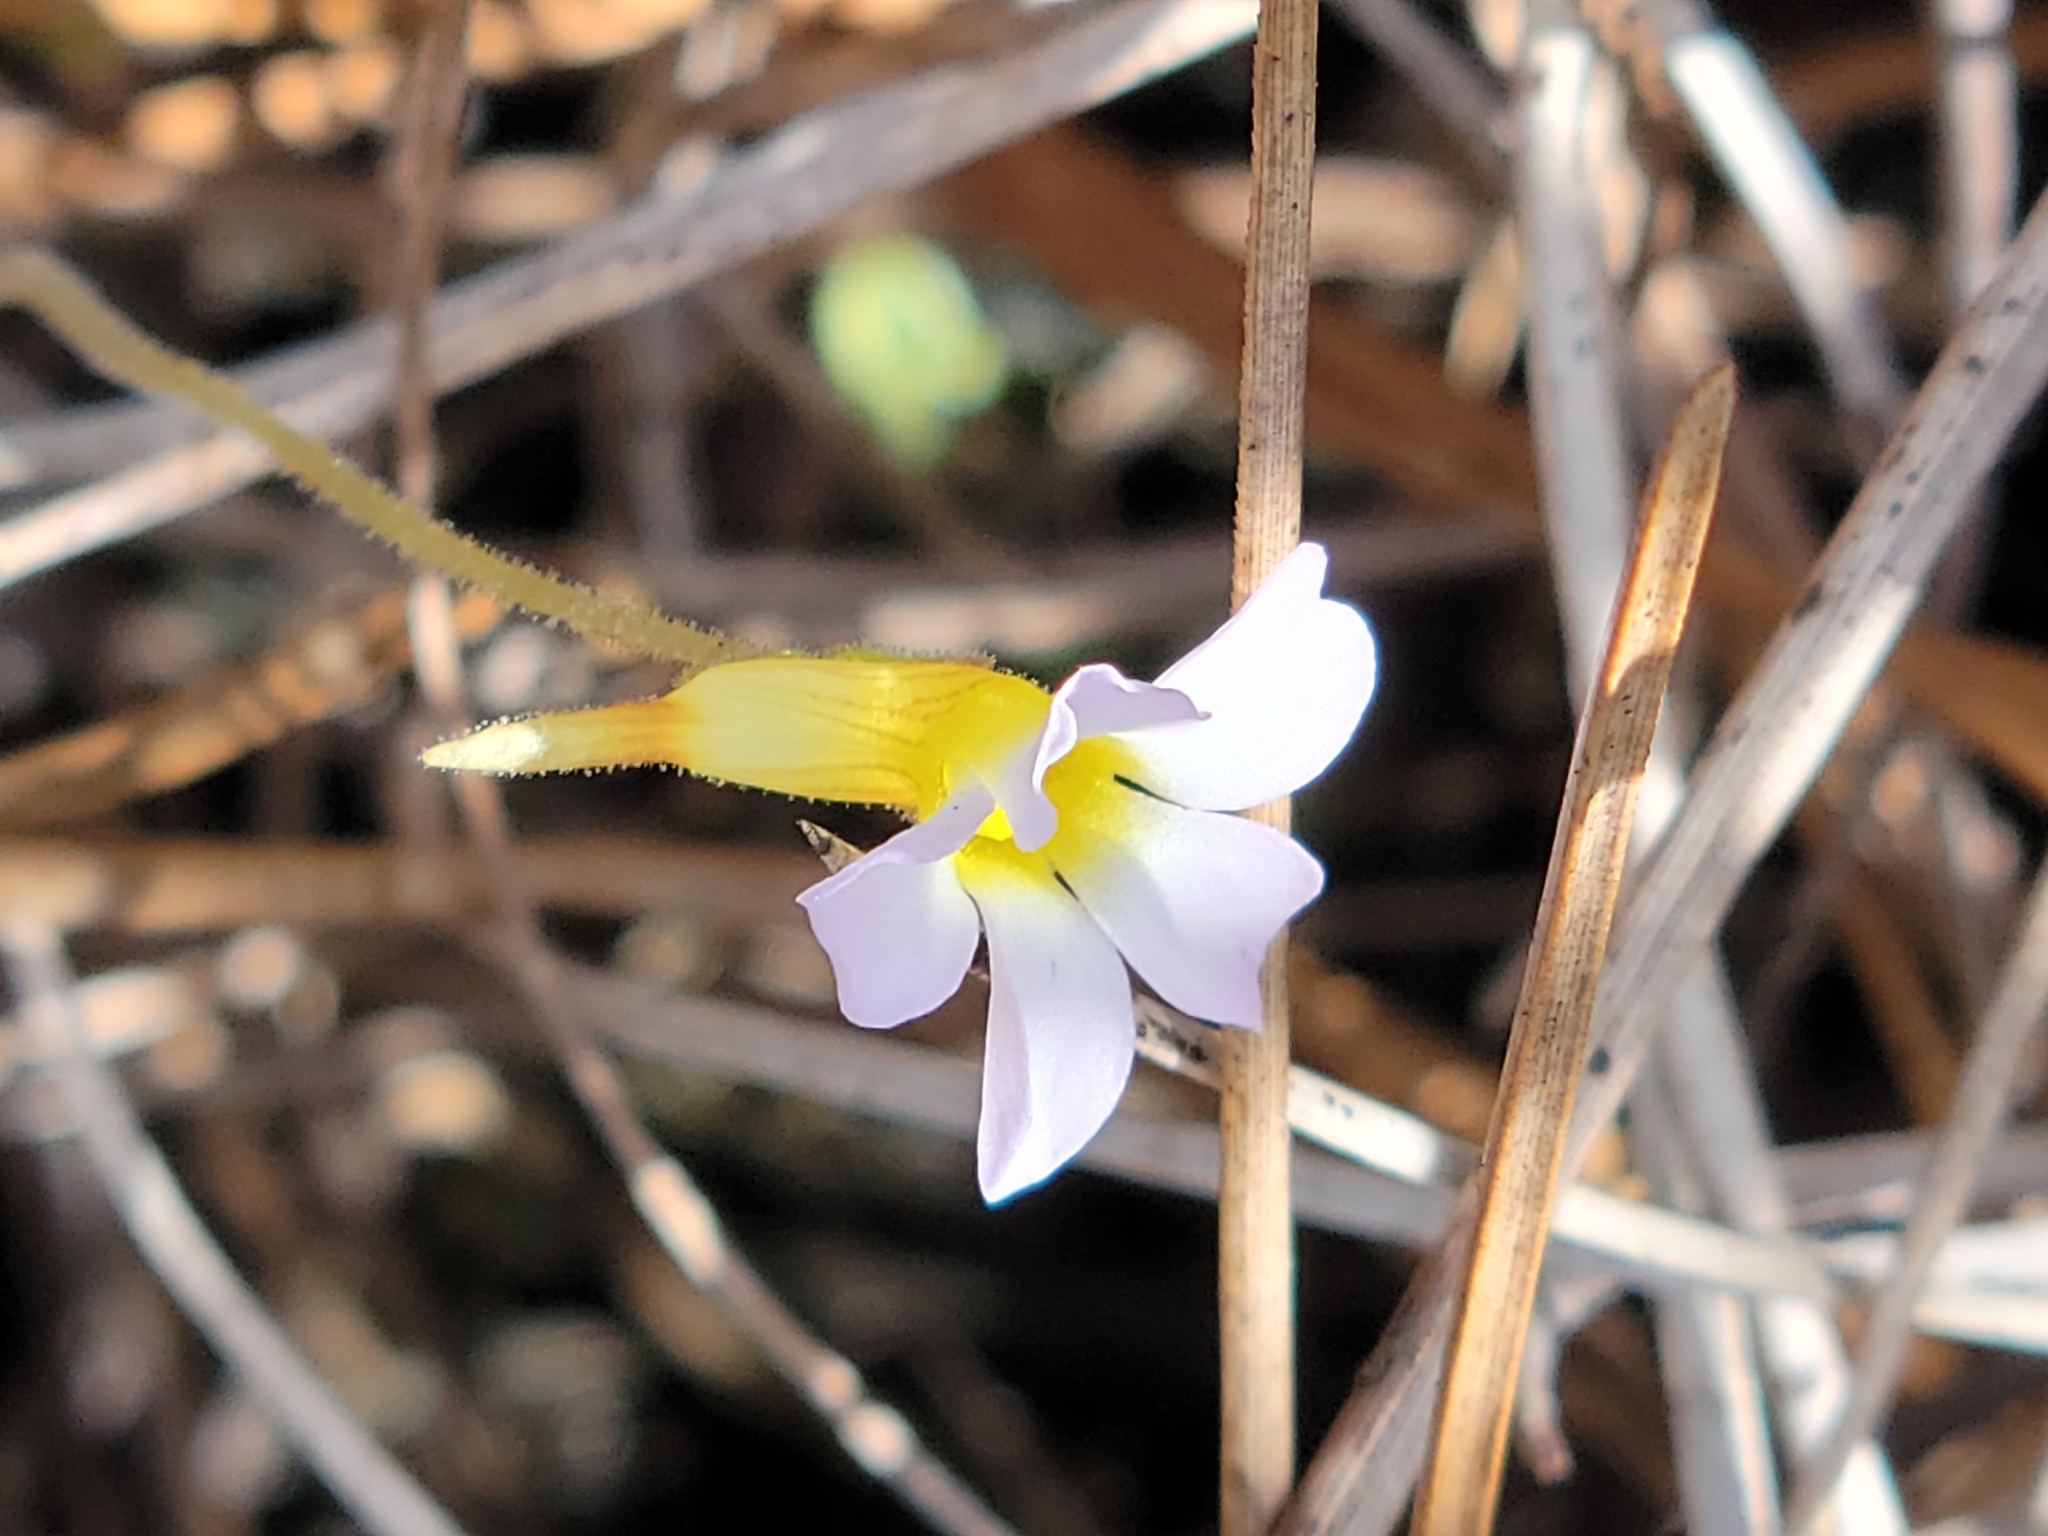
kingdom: Plantae
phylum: Tracheophyta
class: Magnoliopsida
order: Lamiales
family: Lentibulariaceae
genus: Pinguicula
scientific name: Pinguicula pumila
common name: Small butterwort
